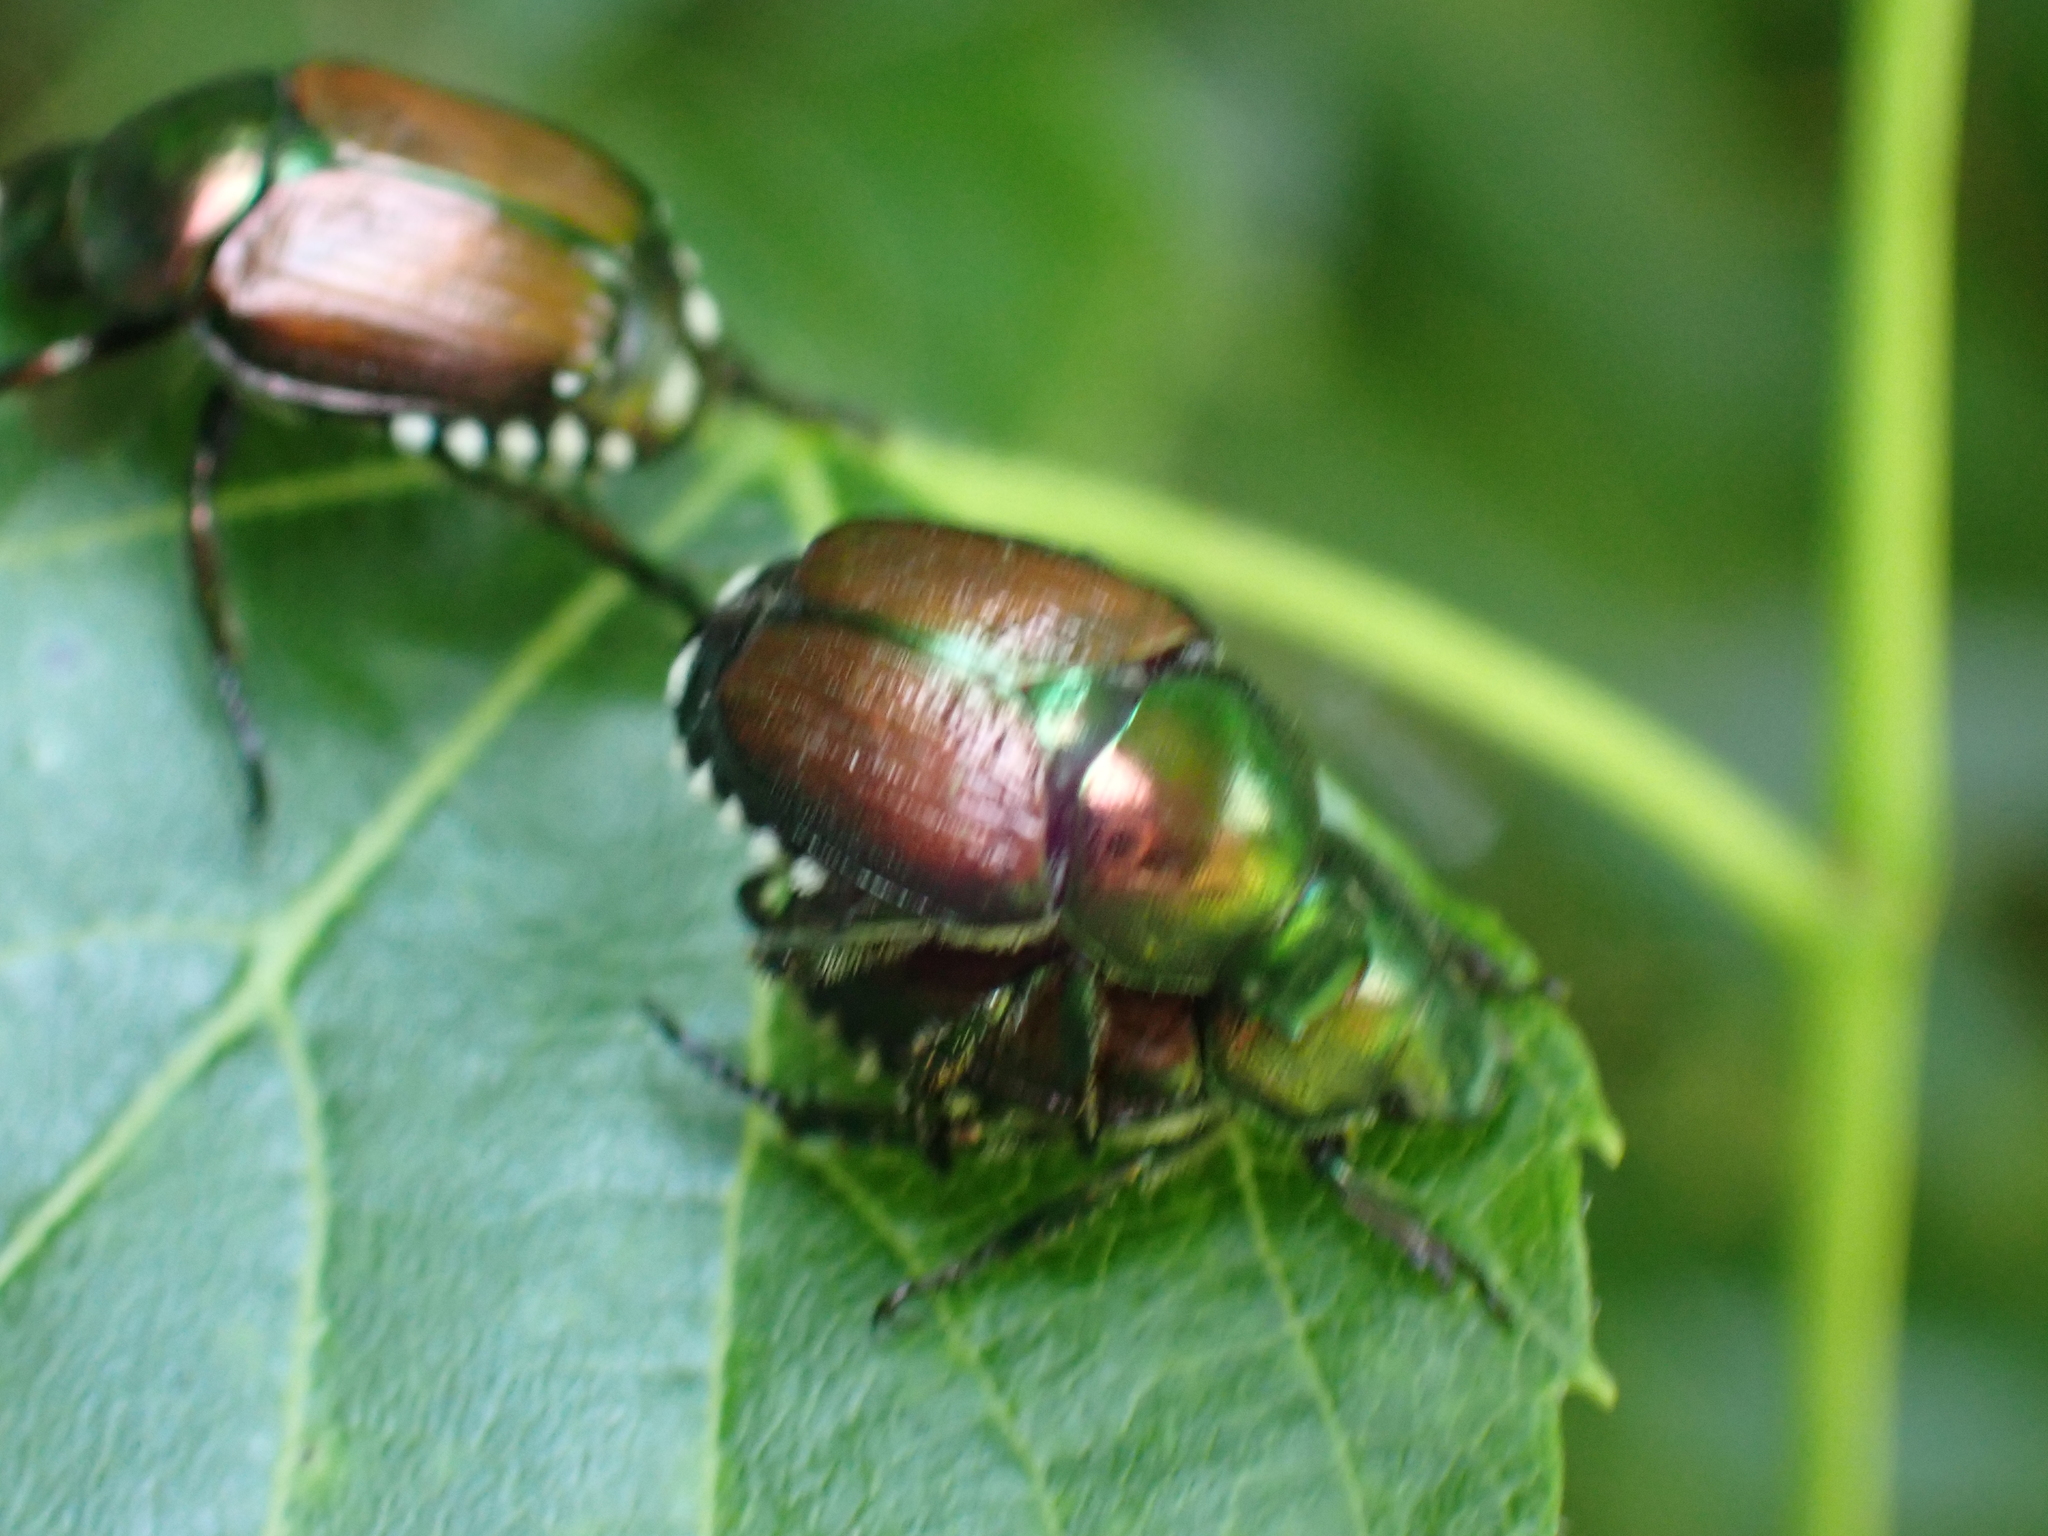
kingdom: Animalia
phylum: Arthropoda
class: Insecta
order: Coleoptera
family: Scarabaeidae
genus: Popillia
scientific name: Popillia japonica
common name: Japanese beetle
